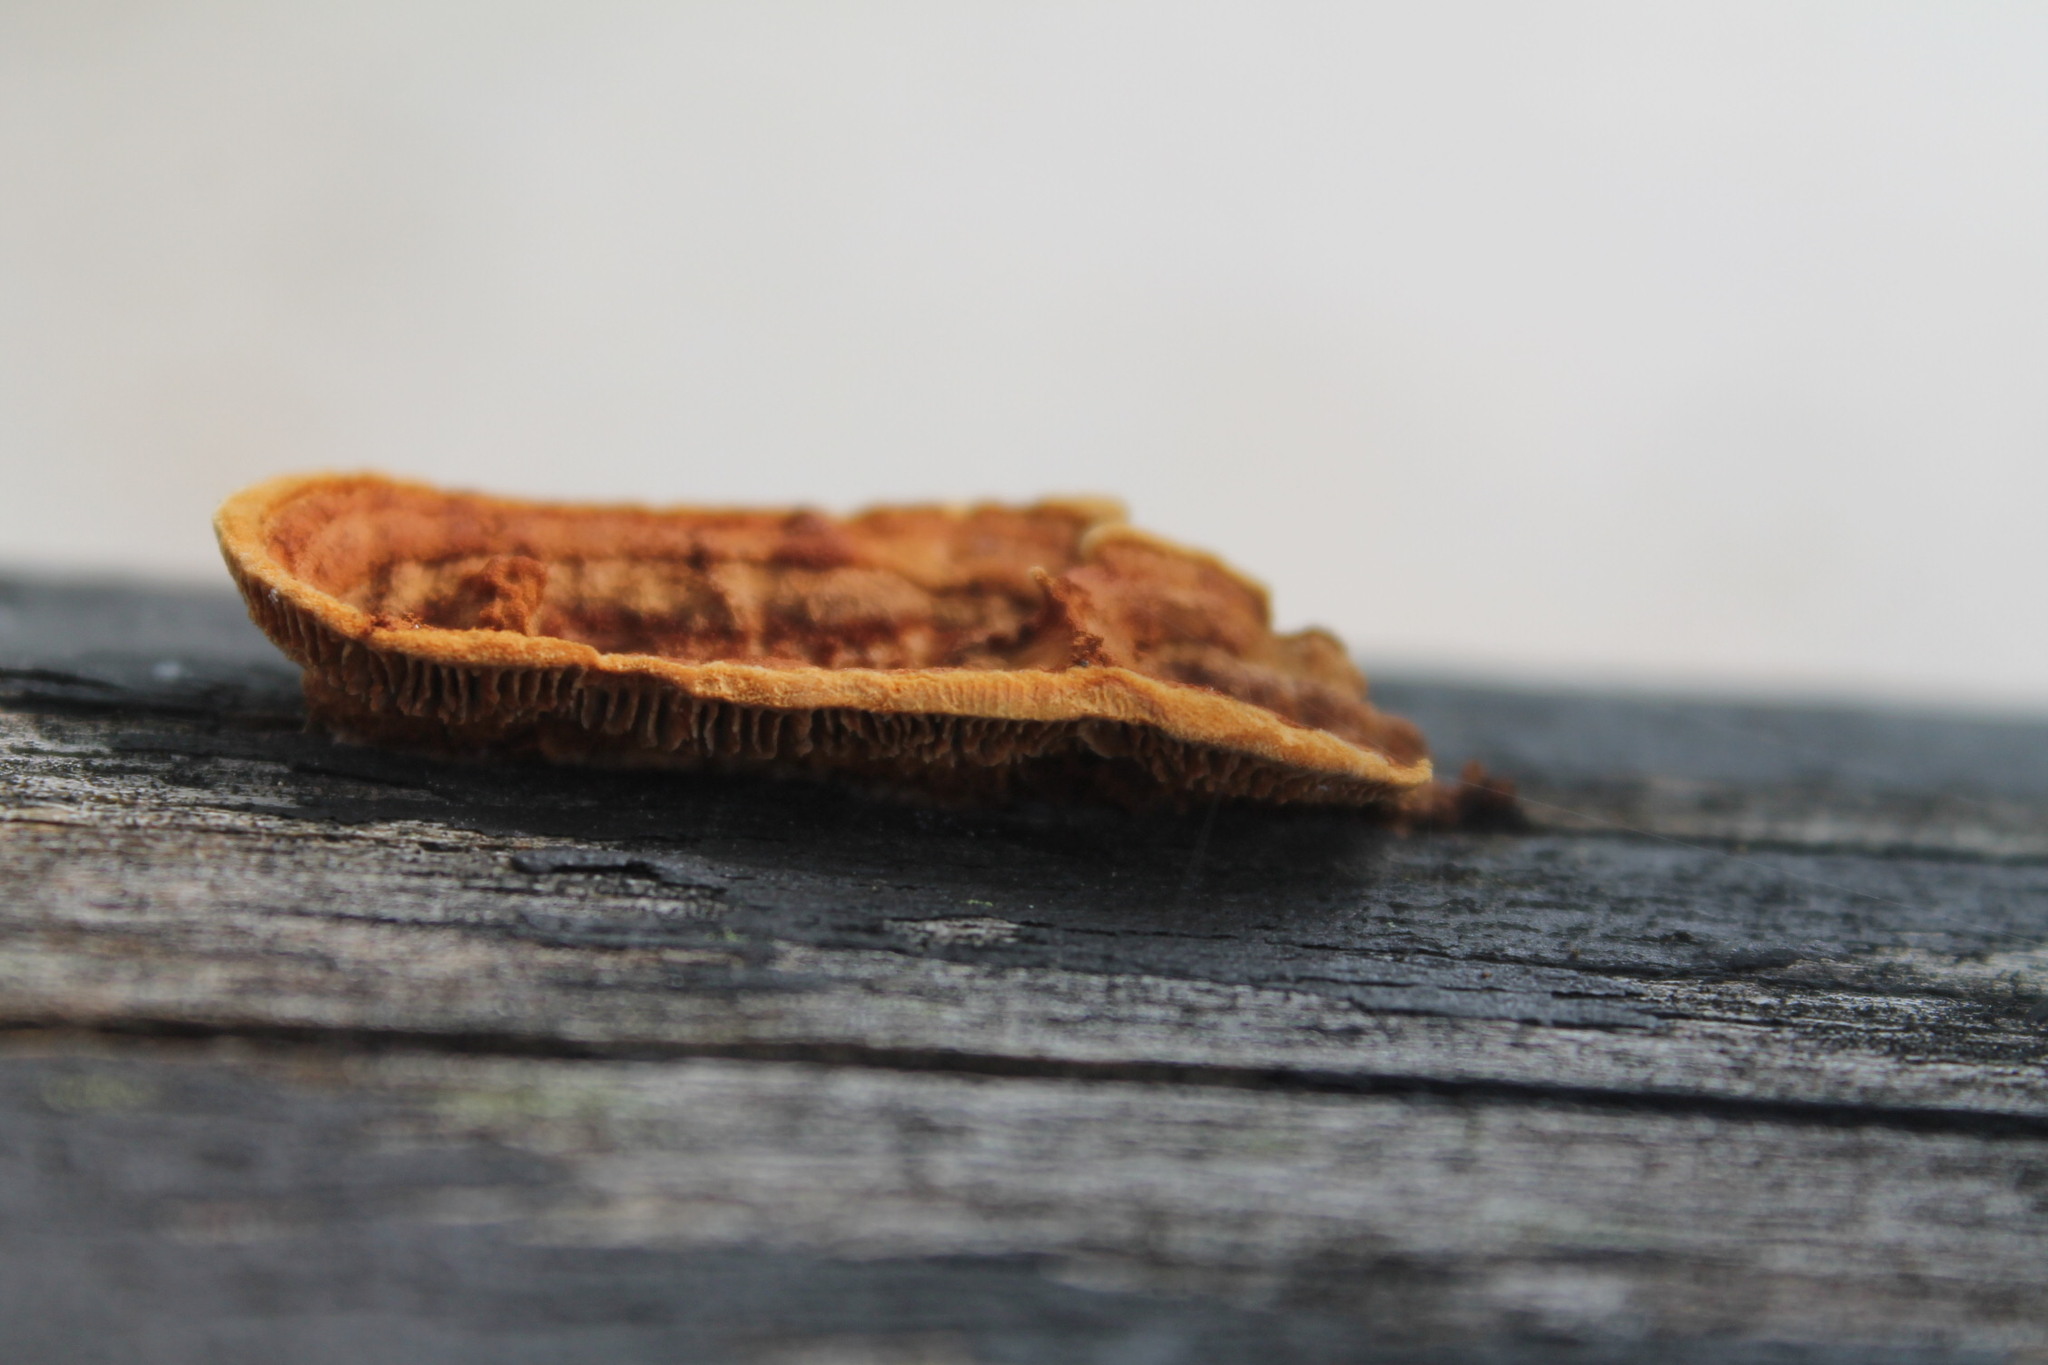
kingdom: Fungi
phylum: Basidiomycota
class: Agaricomycetes
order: Gloeophyllales
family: Gloeophyllaceae
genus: Gloeophyllum
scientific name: Gloeophyllum sepiarium
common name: Conifer mazegill
